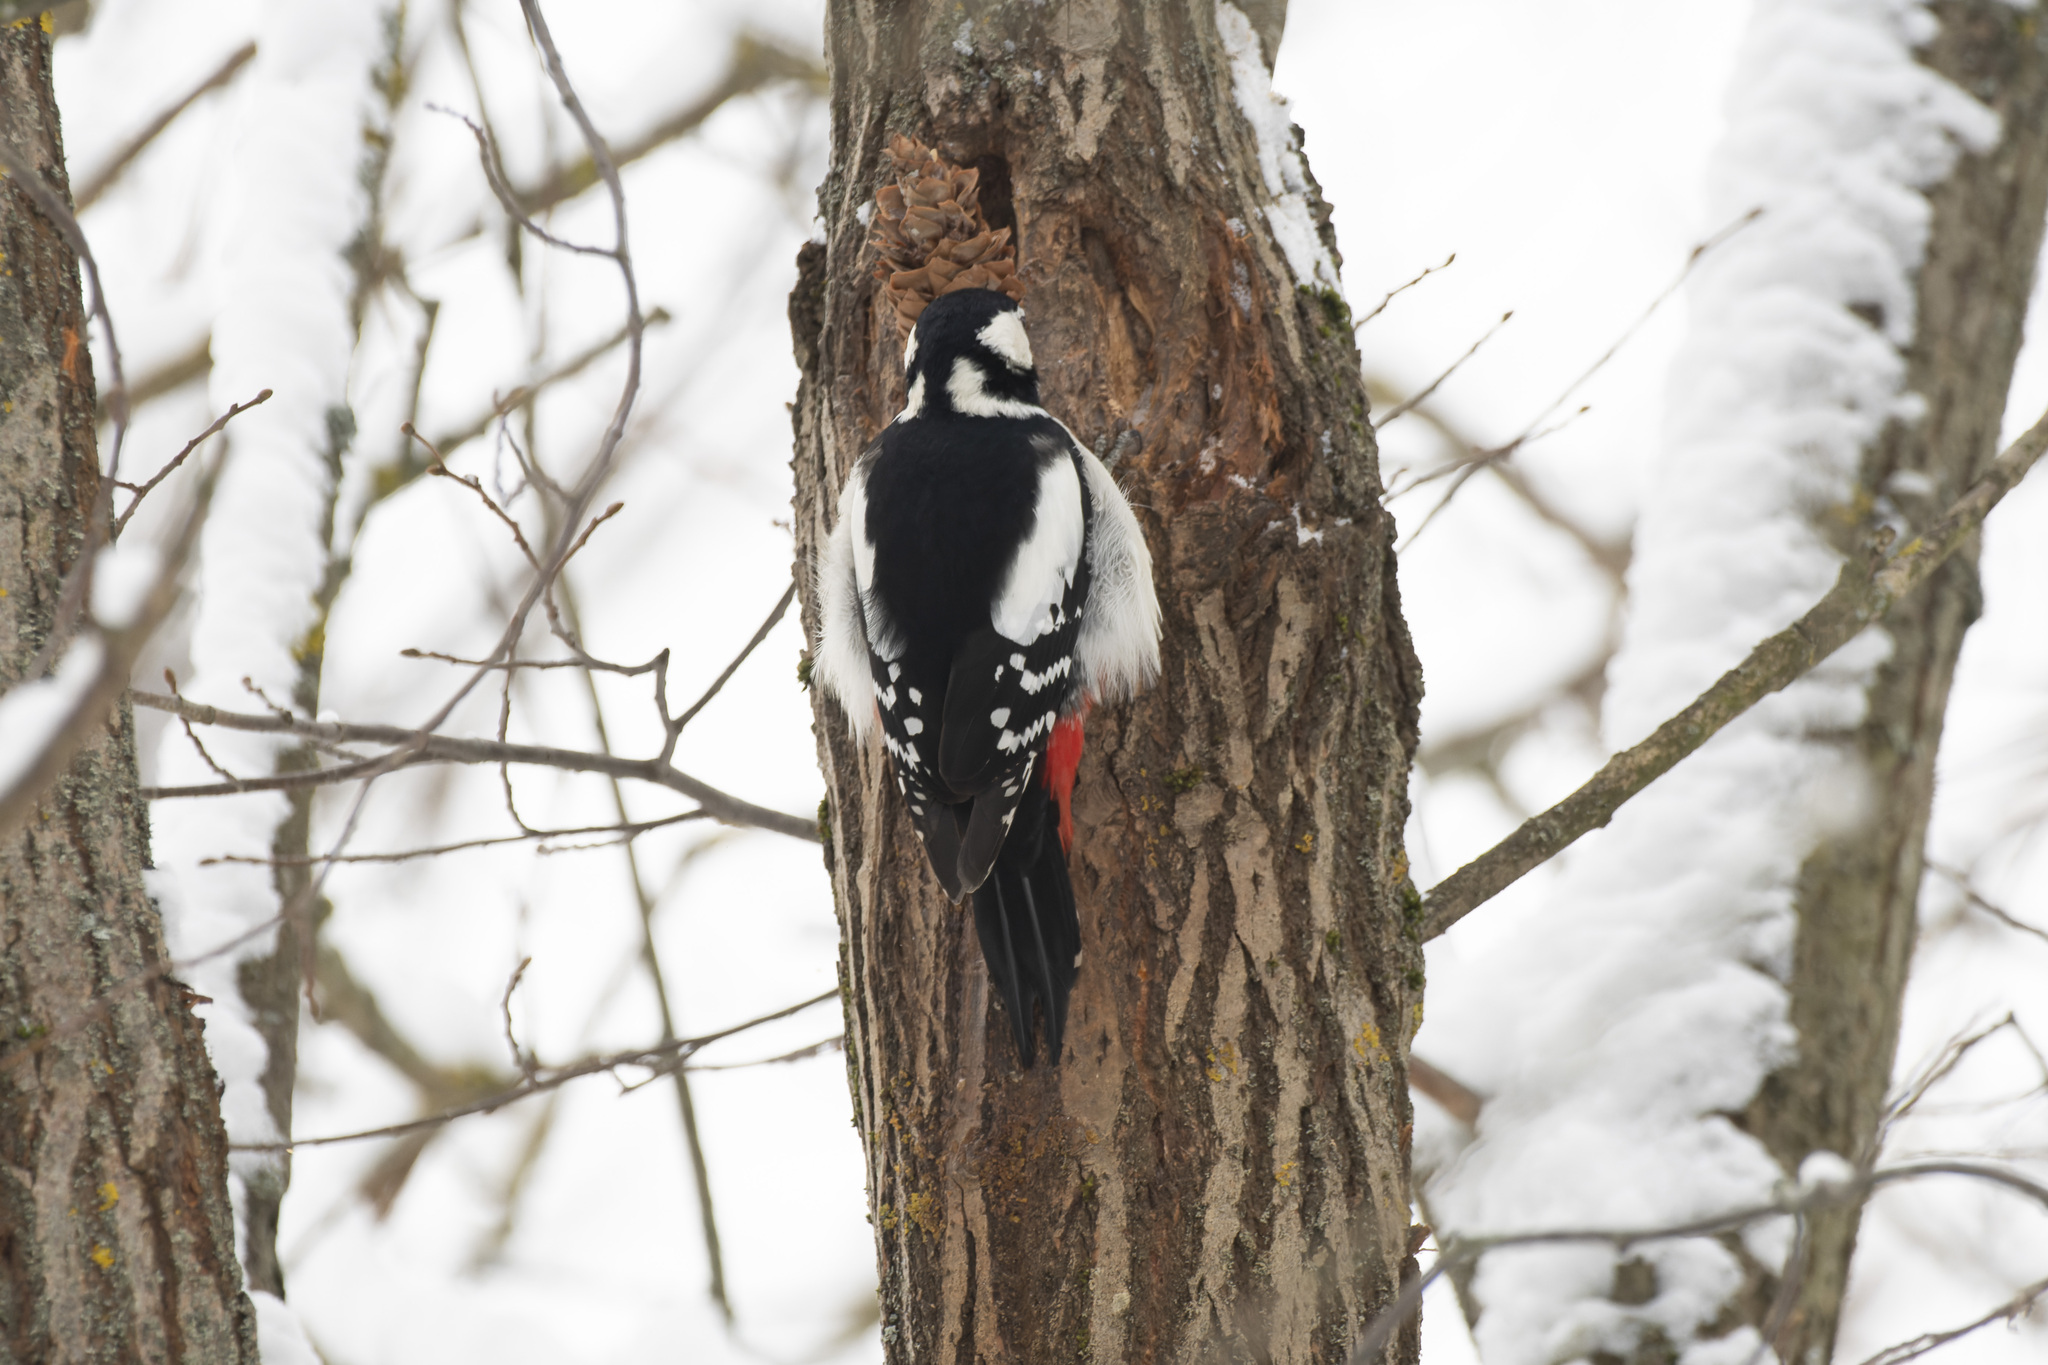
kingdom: Animalia
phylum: Chordata
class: Aves
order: Piciformes
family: Picidae
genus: Dendrocopos
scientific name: Dendrocopos major
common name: Great spotted woodpecker
